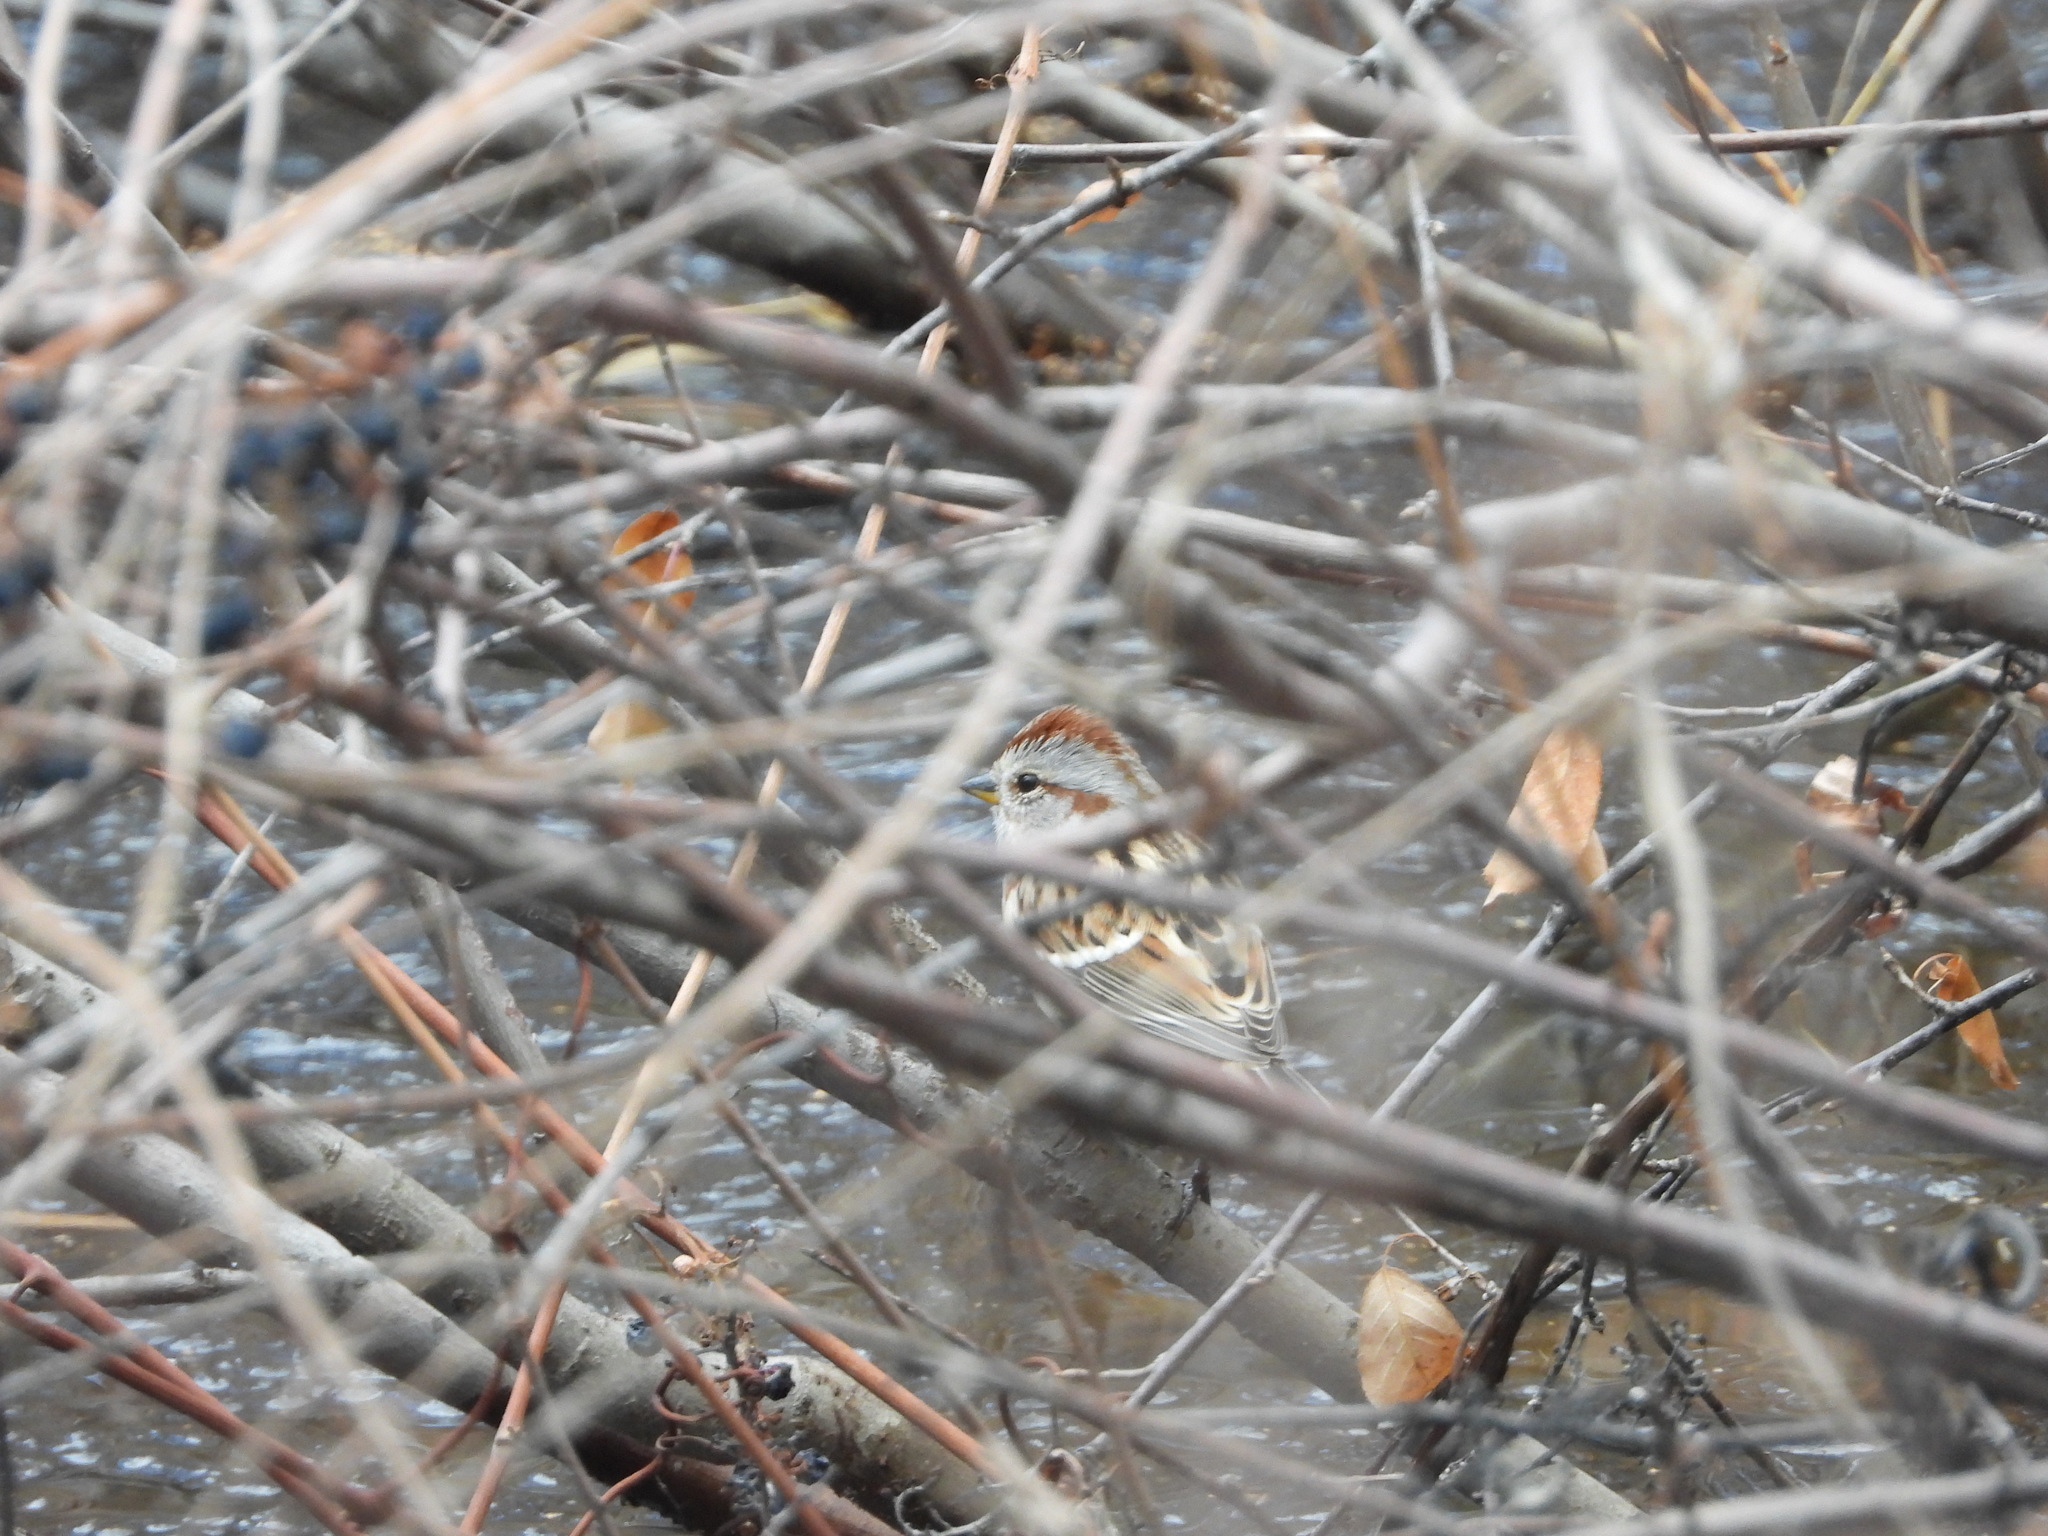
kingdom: Animalia
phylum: Chordata
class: Aves
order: Passeriformes
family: Passerellidae
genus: Spizelloides
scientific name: Spizelloides arborea
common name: American tree sparrow
